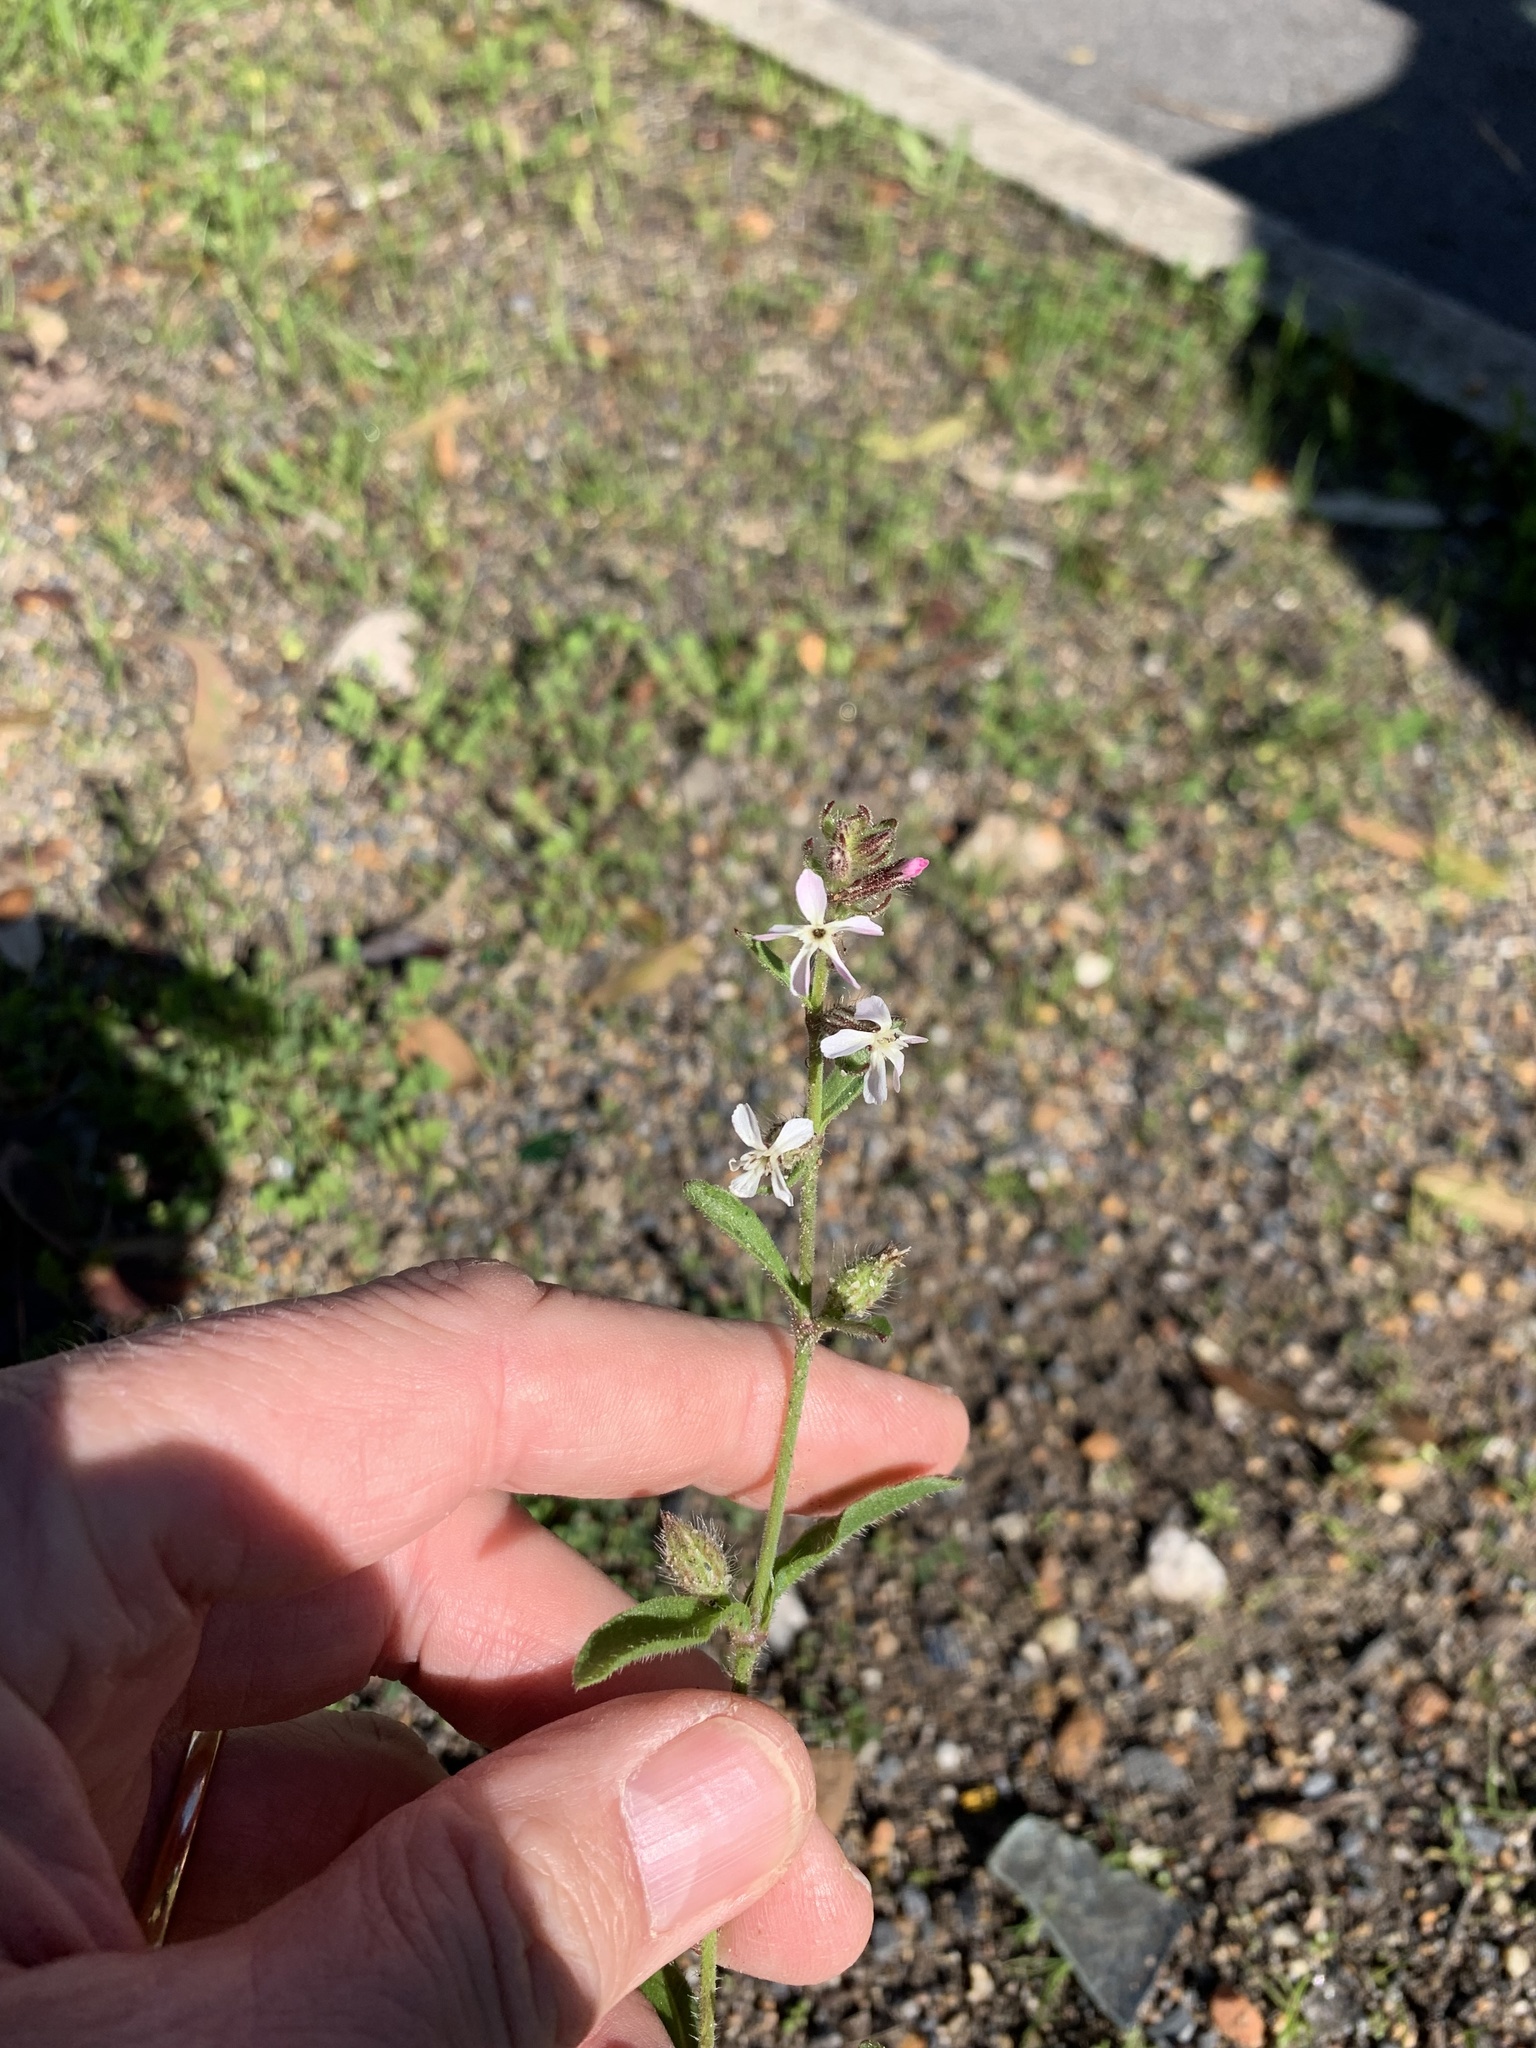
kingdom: Plantae
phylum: Tracheophyta
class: Magnoliopsida
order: Caryophyllales
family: Caryophyllaceae
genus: Silene
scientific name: Silene gallica
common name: Small-flowered catchfly
